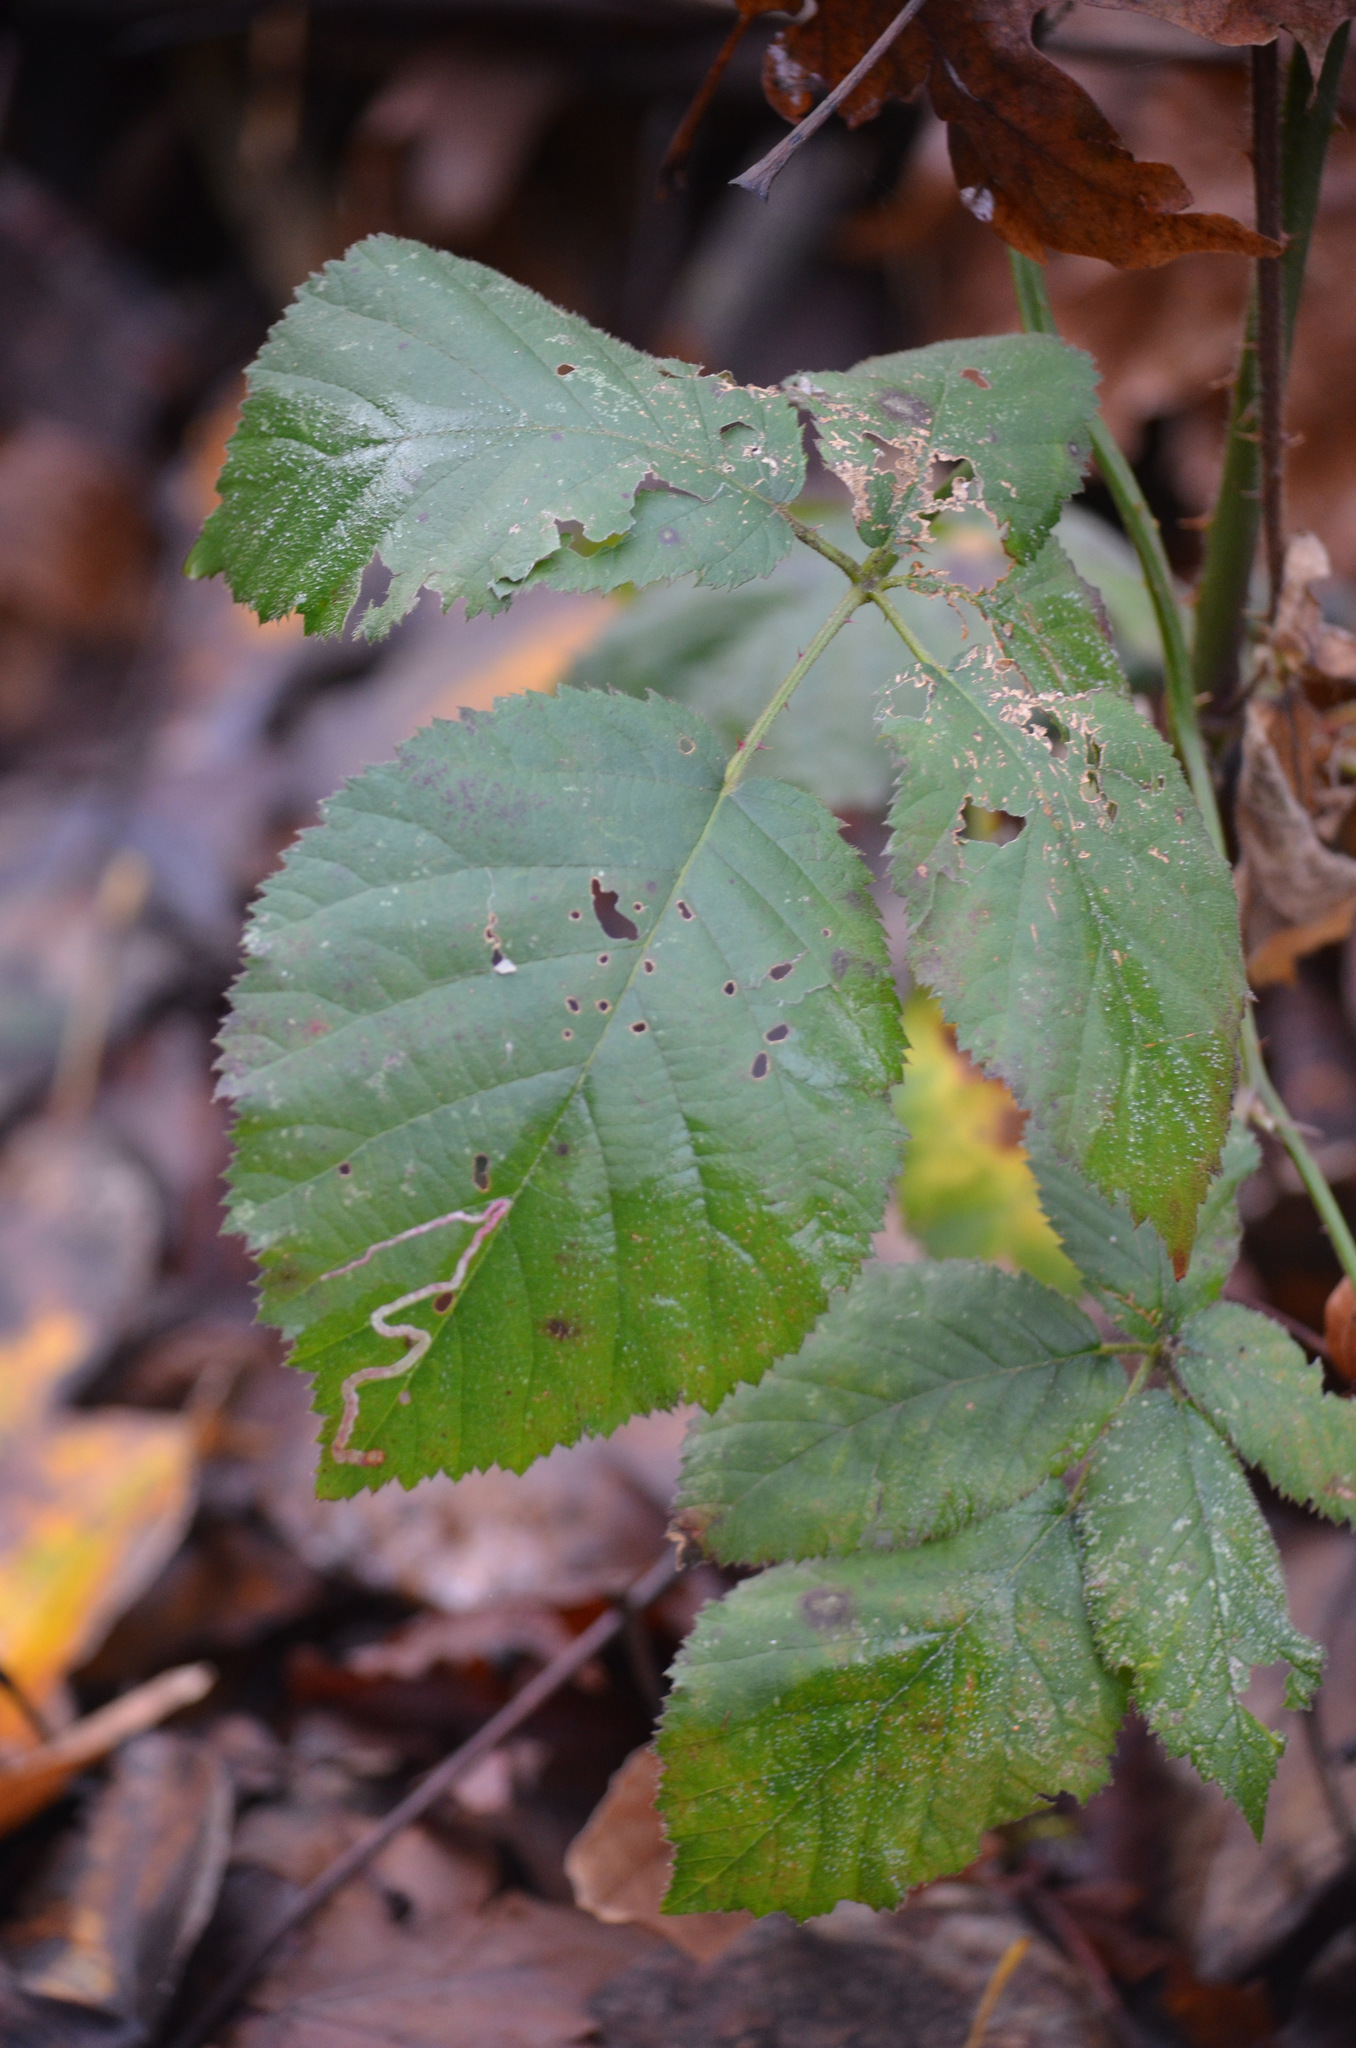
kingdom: Animalia
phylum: Arthropoda
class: Insecta
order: Diptera
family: Agromyzidae
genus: Agromyza
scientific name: Agromyza vockerothi
